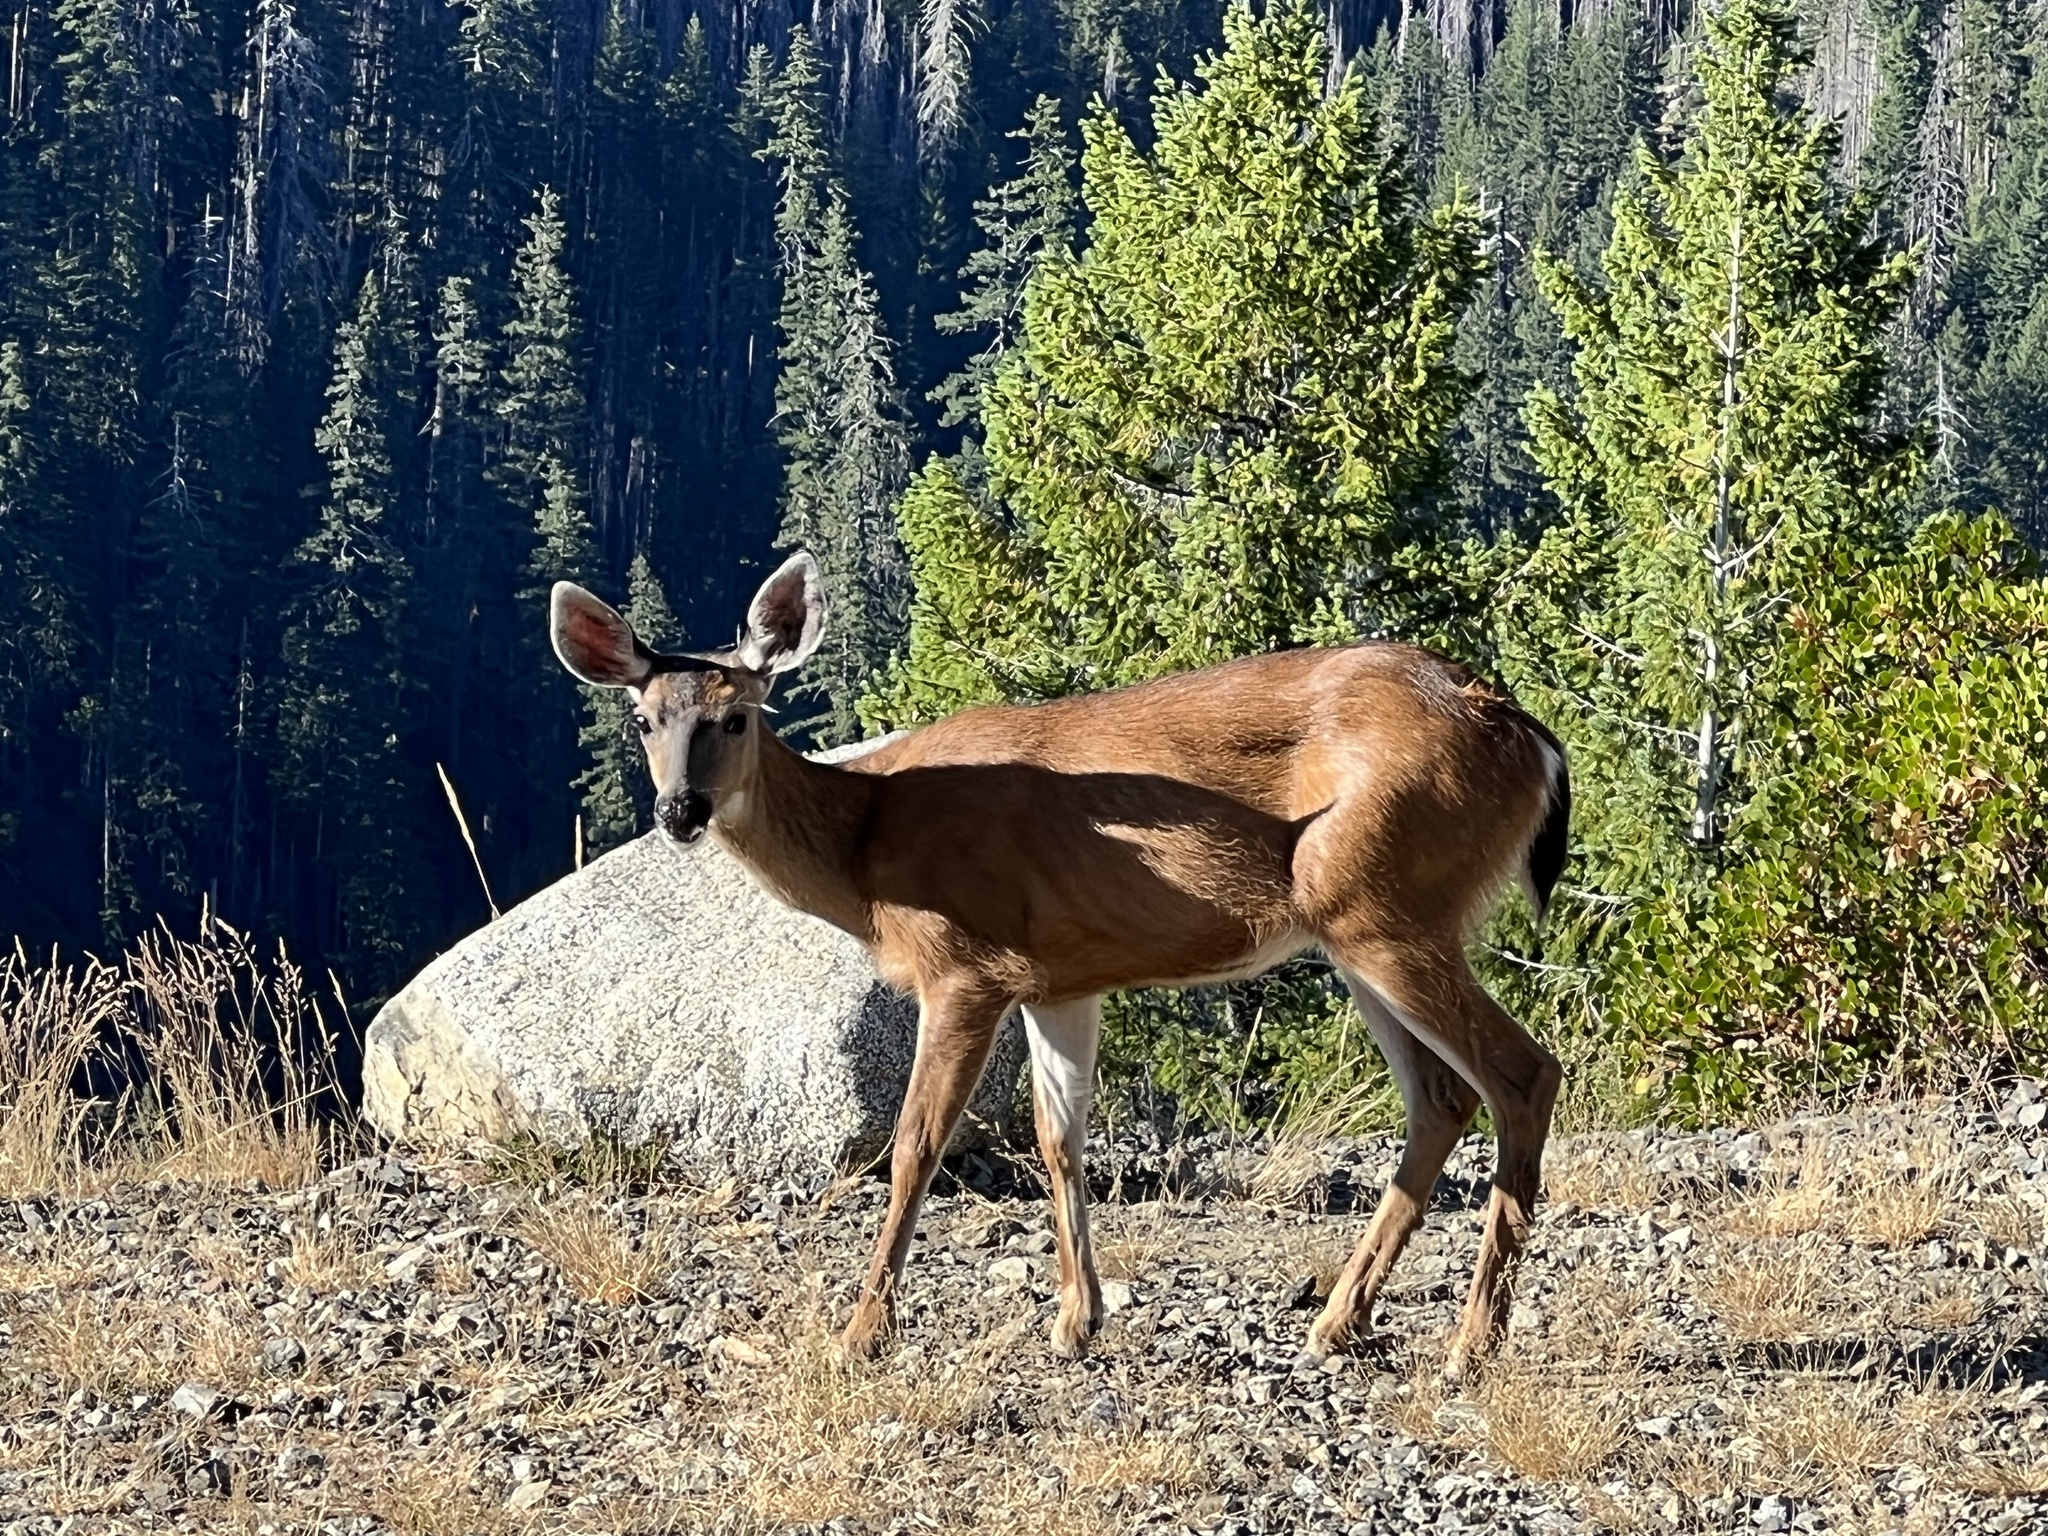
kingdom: Animalia
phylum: Chordata
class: Mammalia
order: Artiodactyla
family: Cervidae
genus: Odocoileus
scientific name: Odocoileus hemionus
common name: Mule deer
